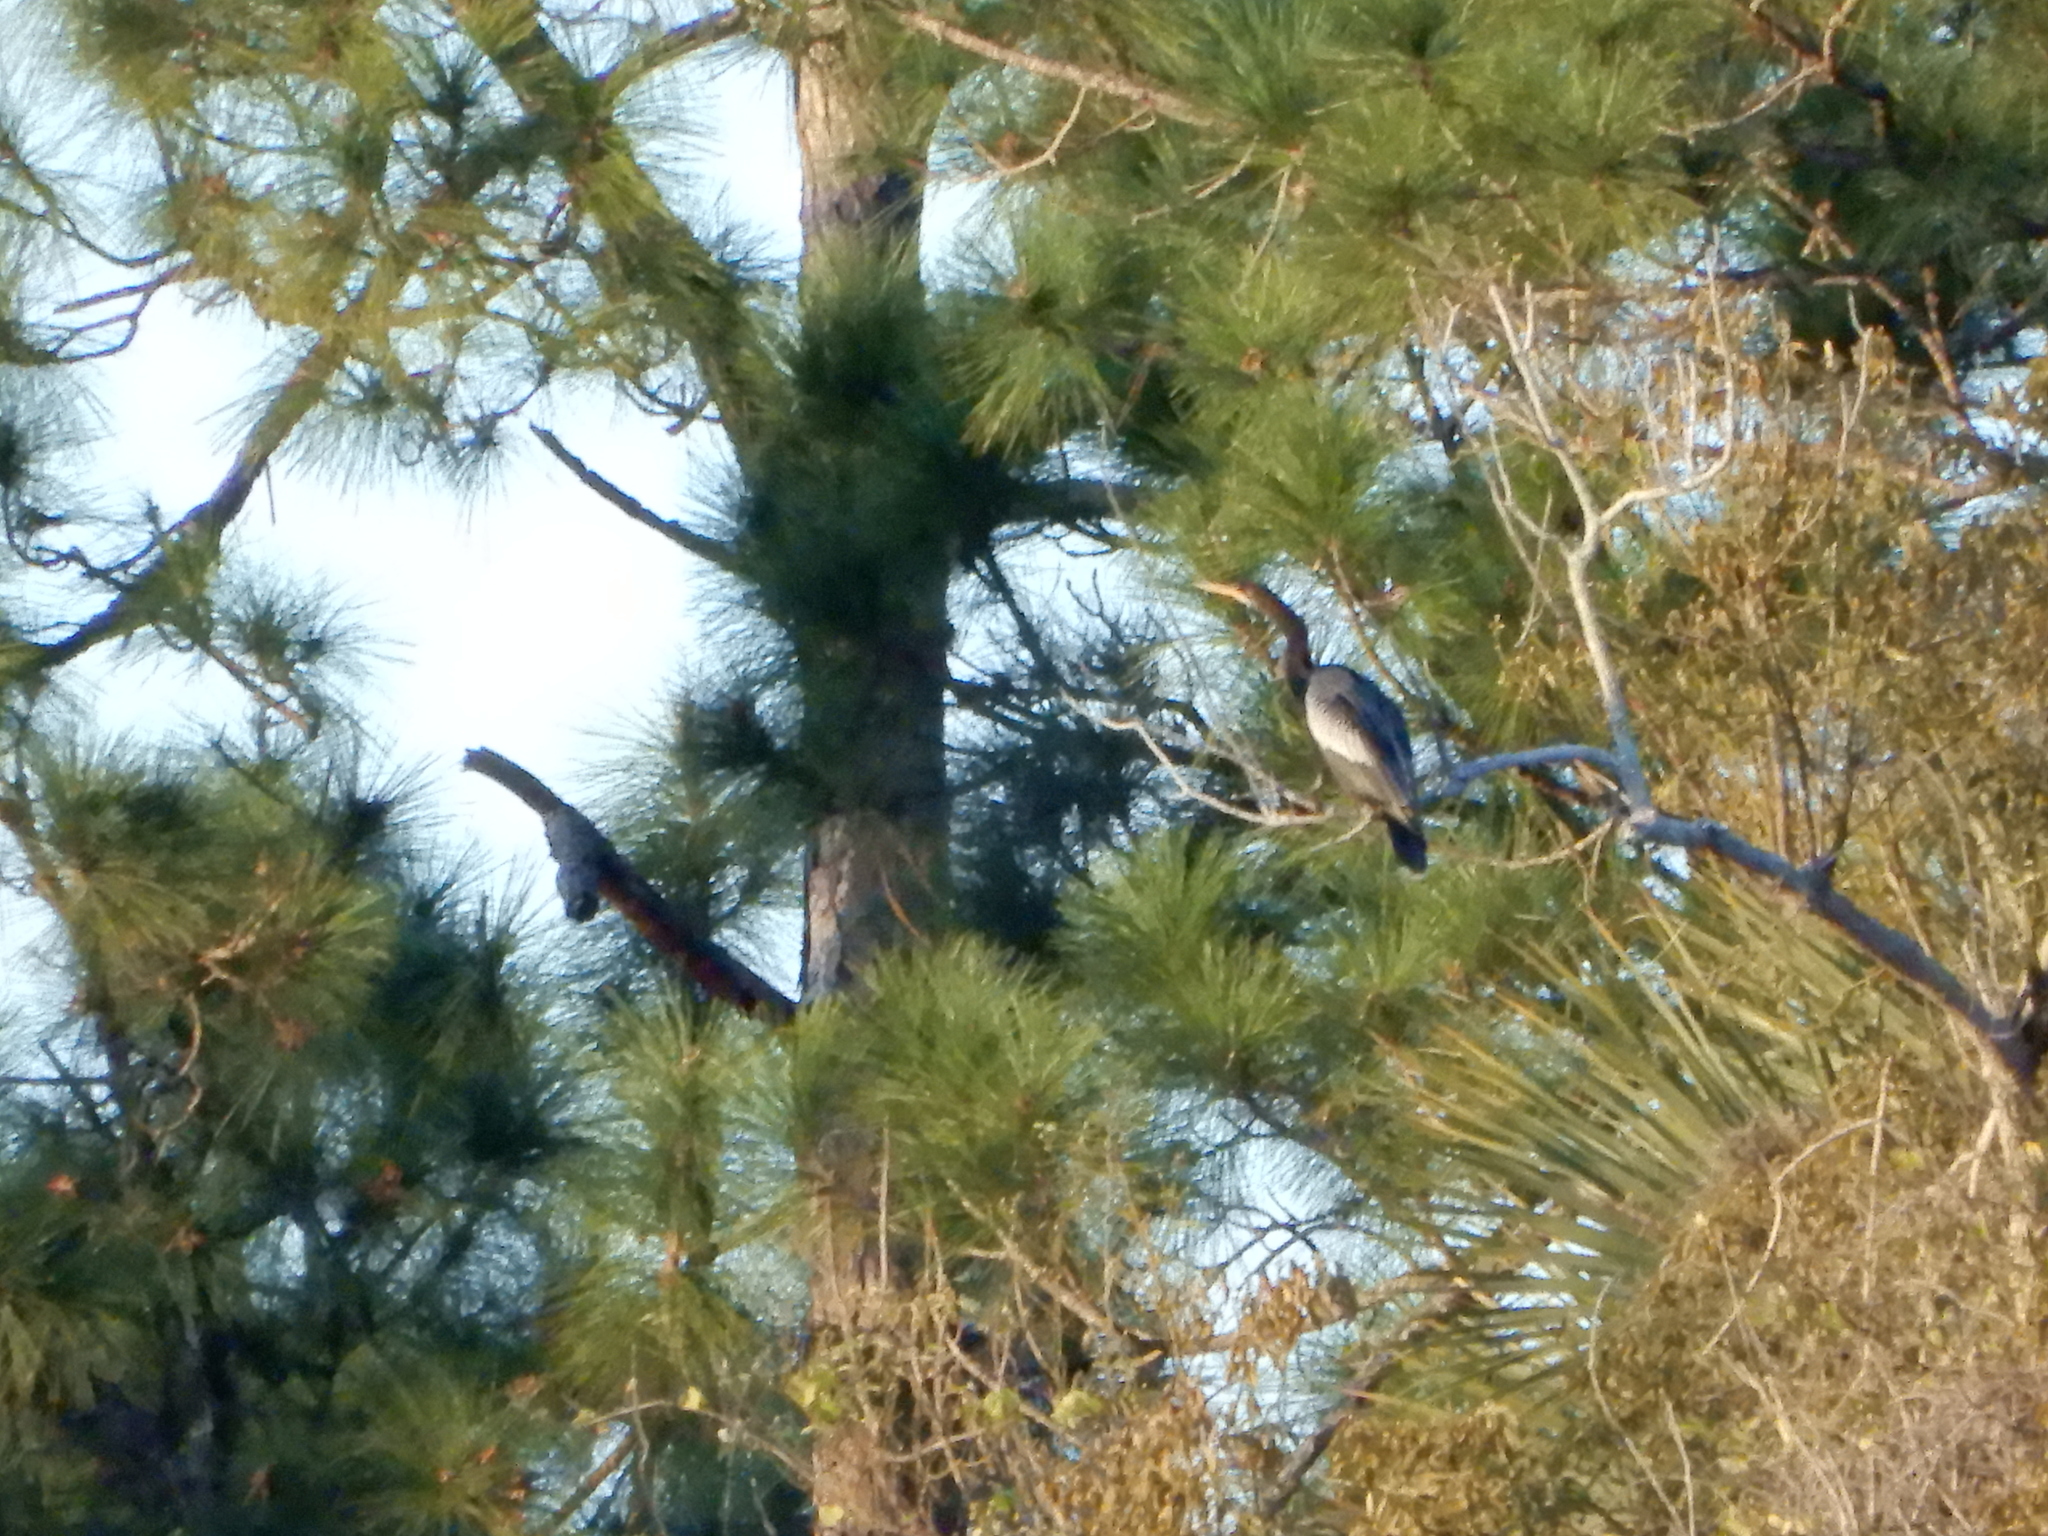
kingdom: Animalia
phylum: Chordata
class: Aves
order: Suliformes
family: Anhingidae
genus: Anhinga
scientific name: Anhinga anhinga
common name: Anhinga
